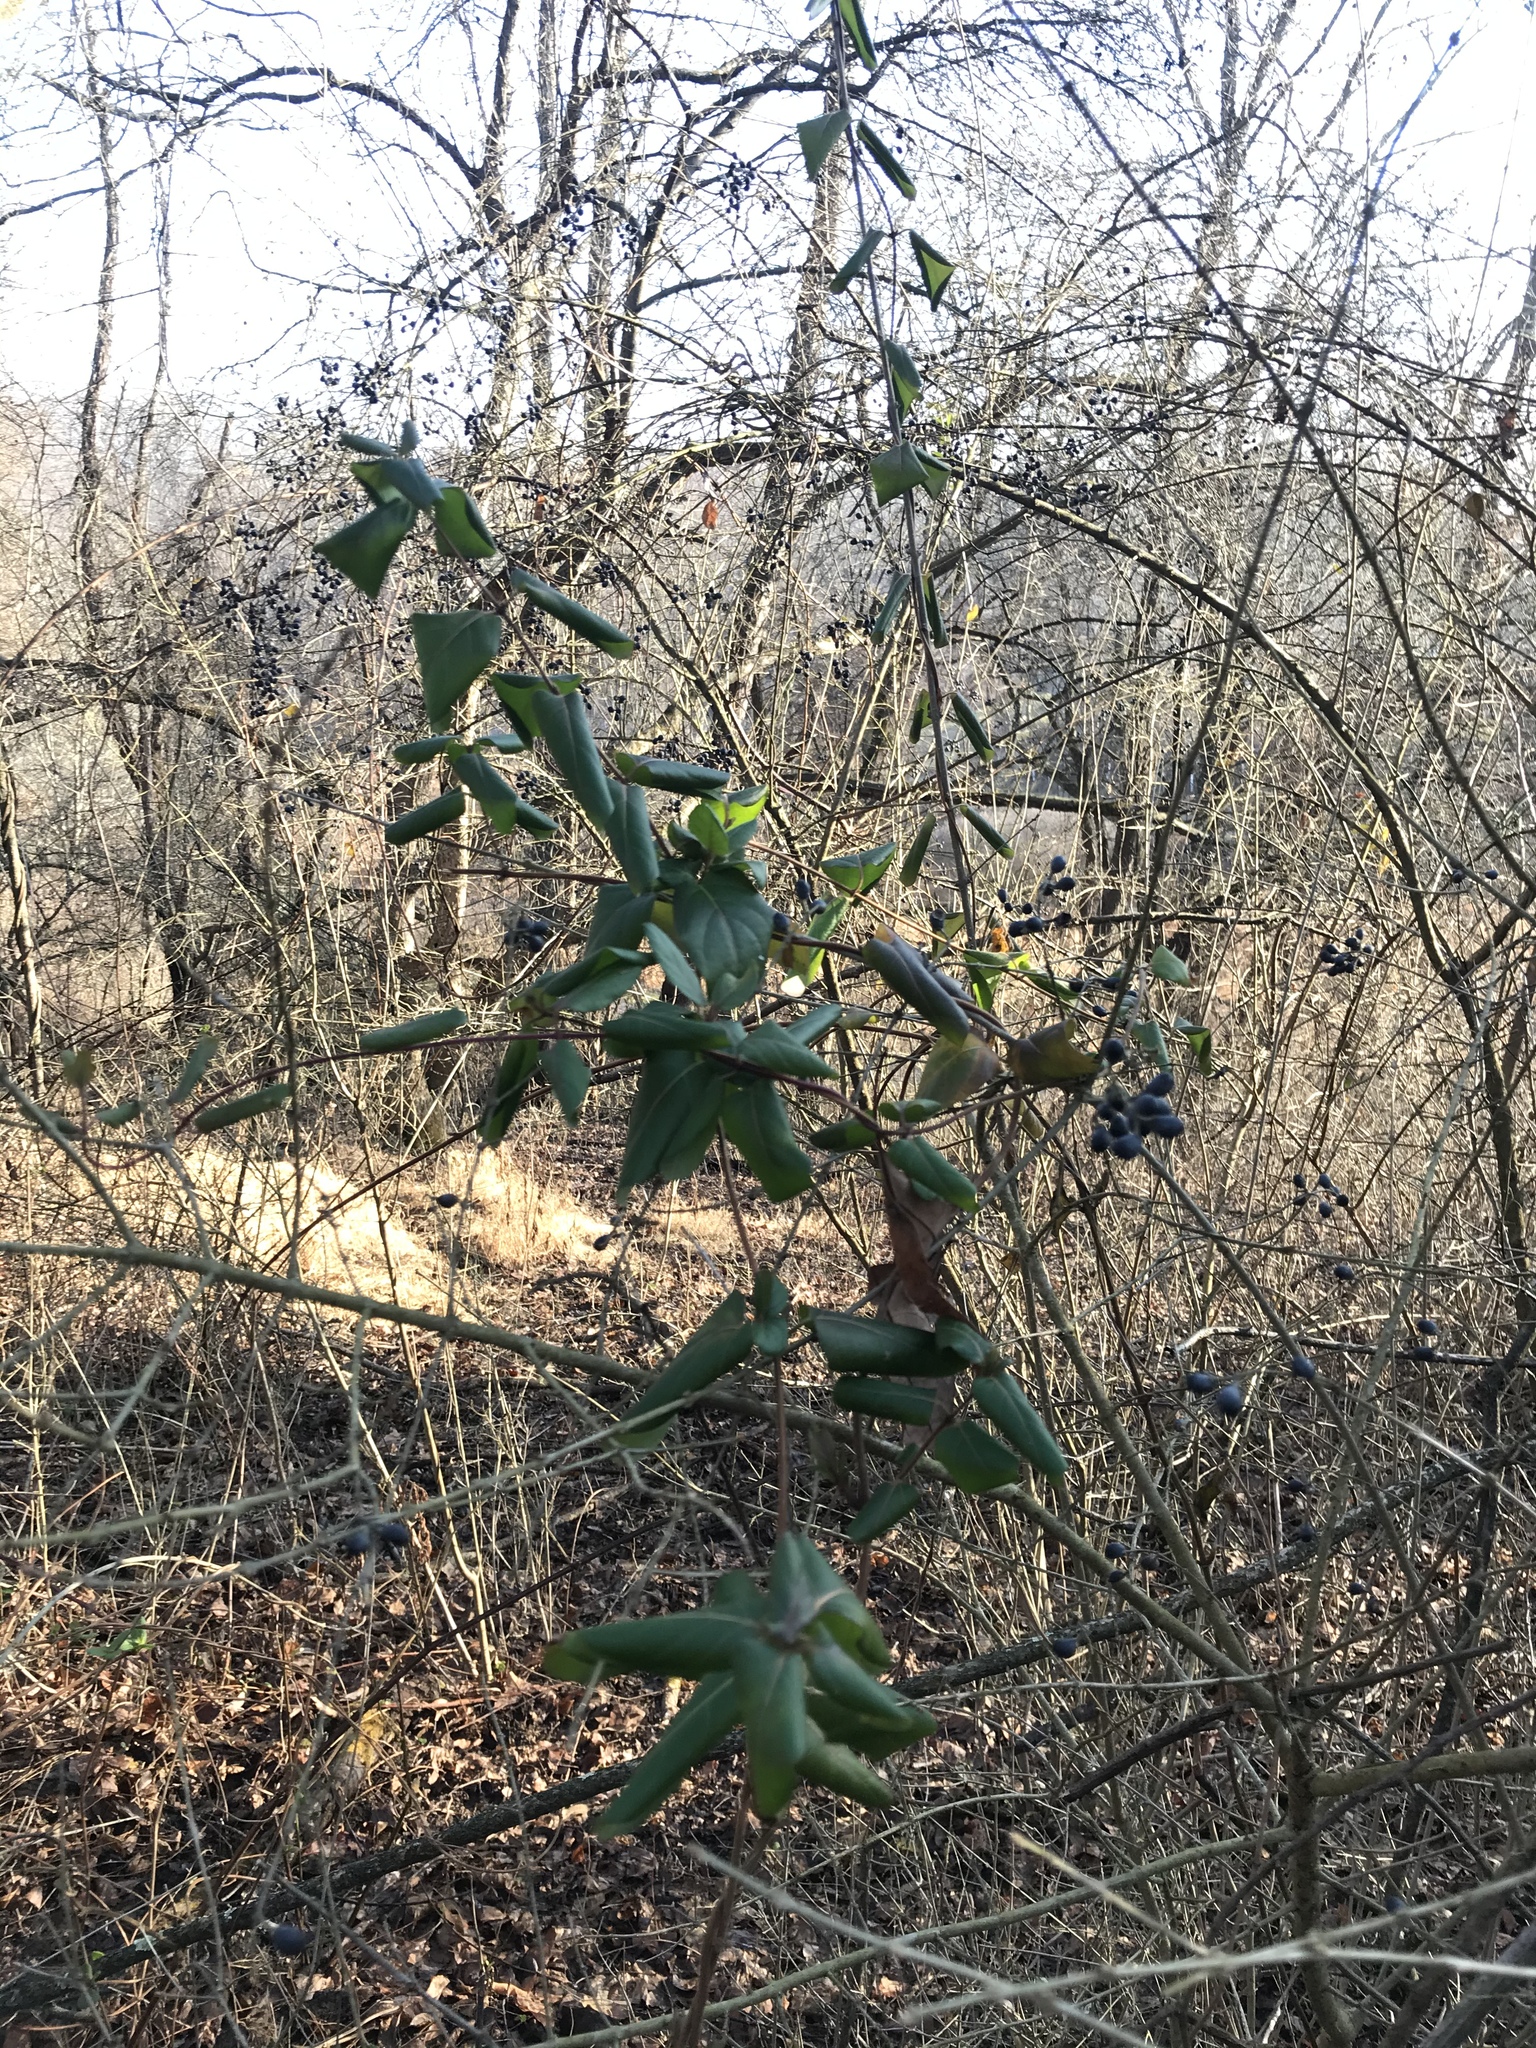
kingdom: Plantae
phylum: Tracheophyta
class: Magnoliopsida
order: Dipsacales
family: Caprifoliaceae
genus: Lonicera
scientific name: Lonicera japonica
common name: Japanese honeysuckle
